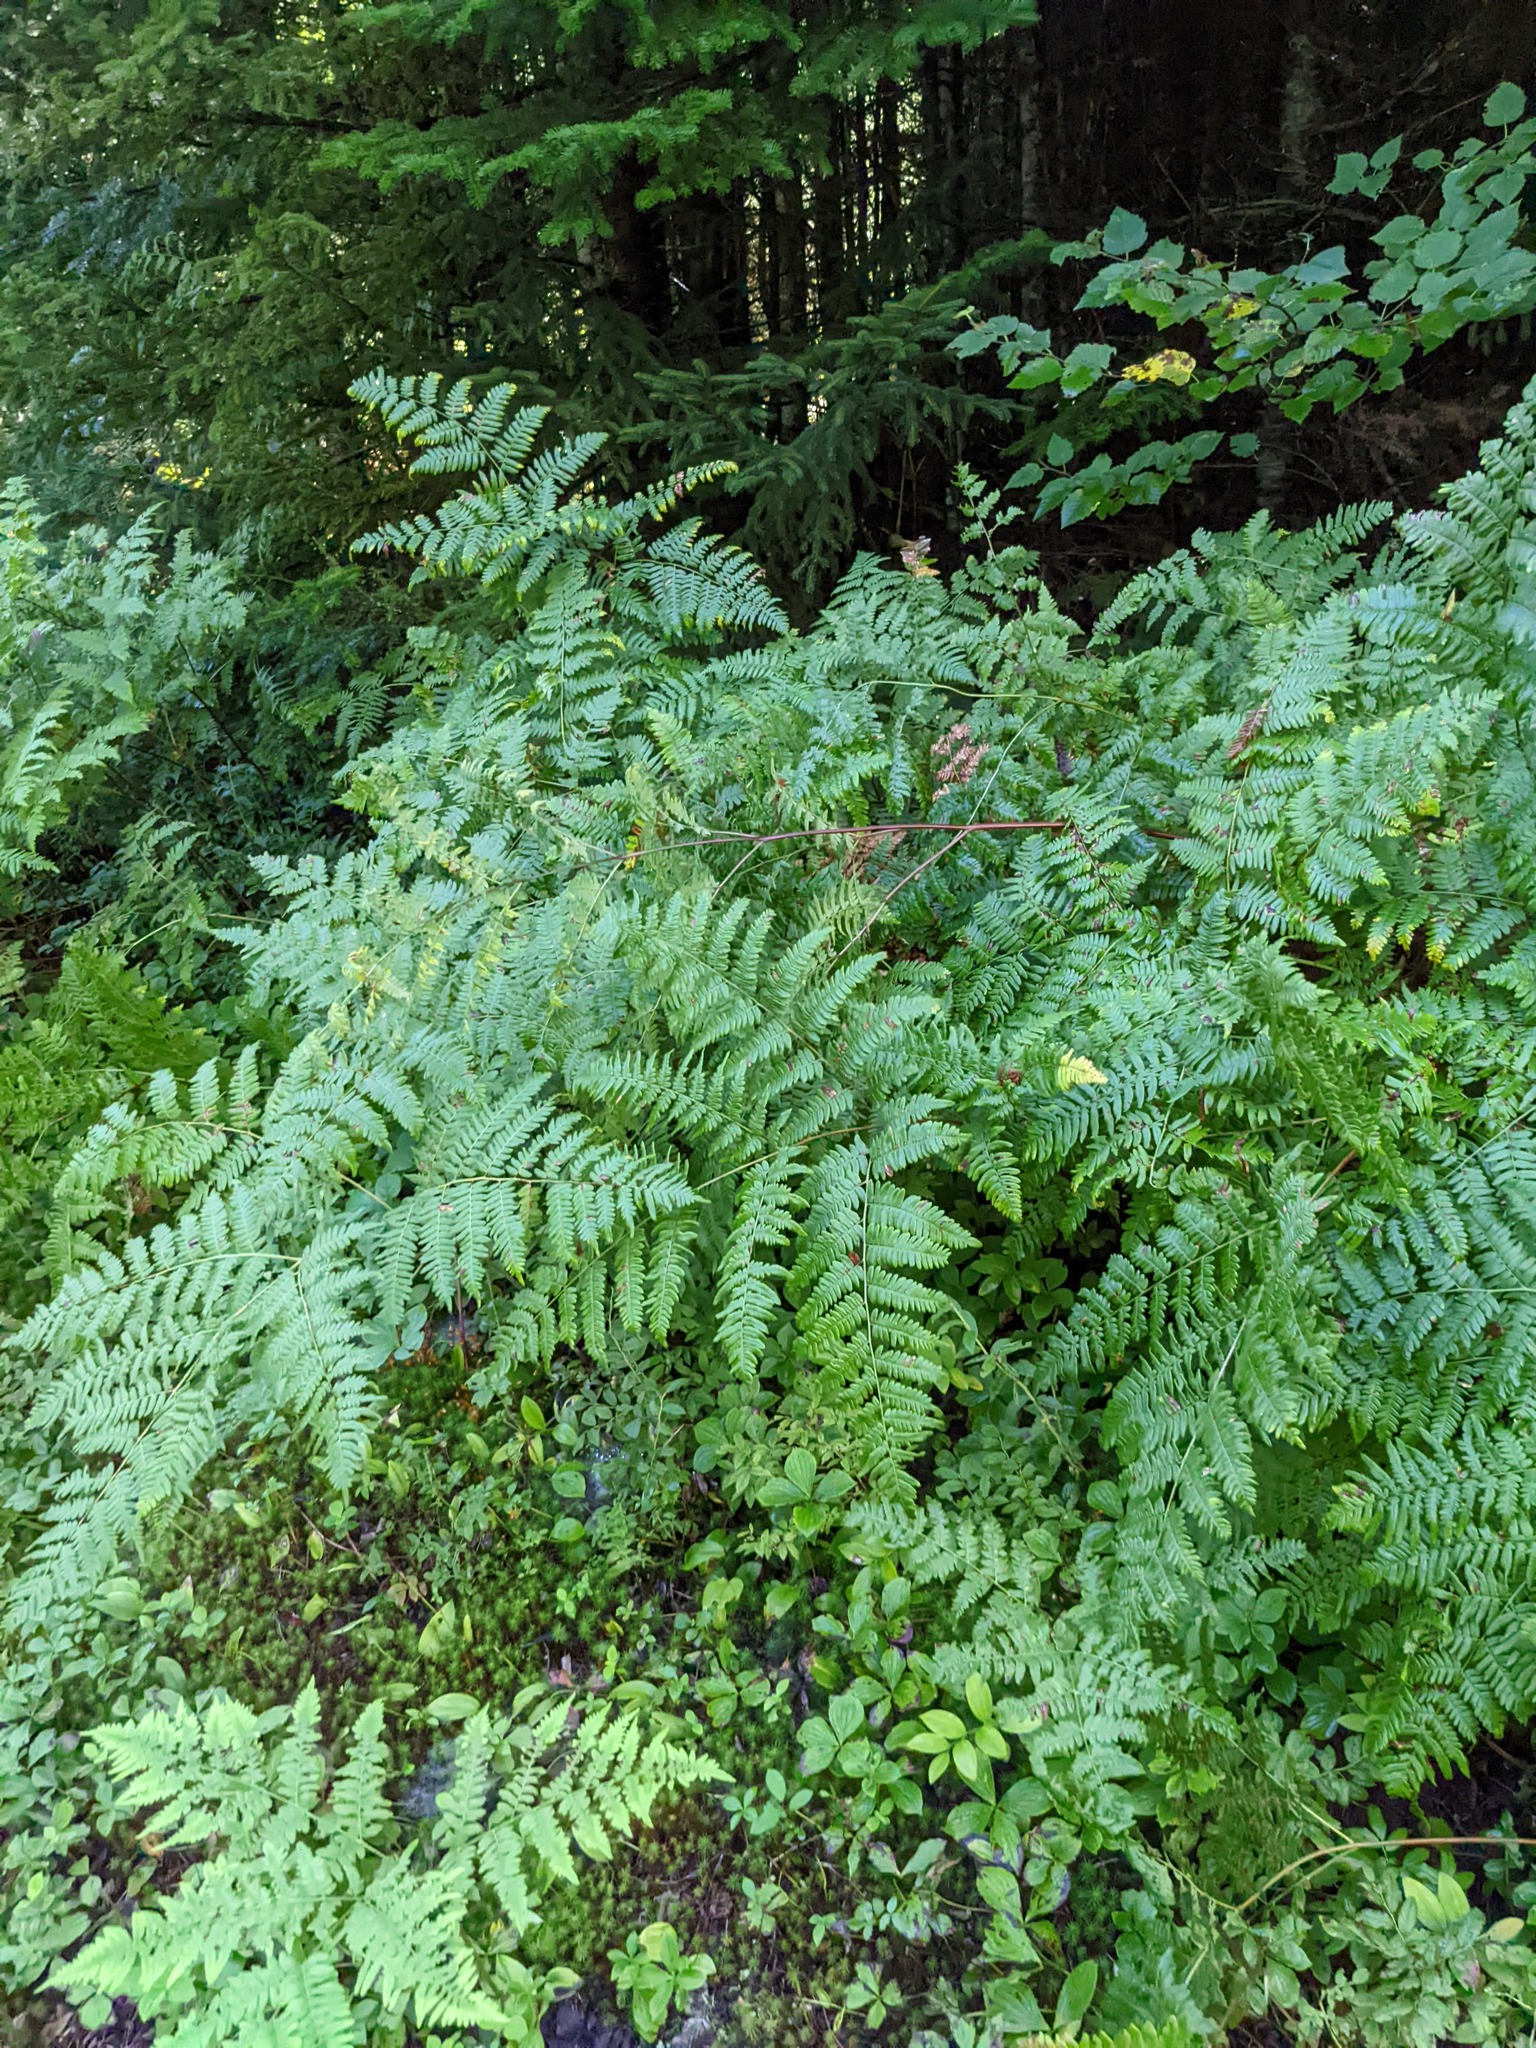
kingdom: Plantae
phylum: Tracheophyta
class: Polypodiopsida
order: Polypodiales
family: Dennstaedtiaceae
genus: Pteridium
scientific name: Pteridium aquilinum
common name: Bracken
